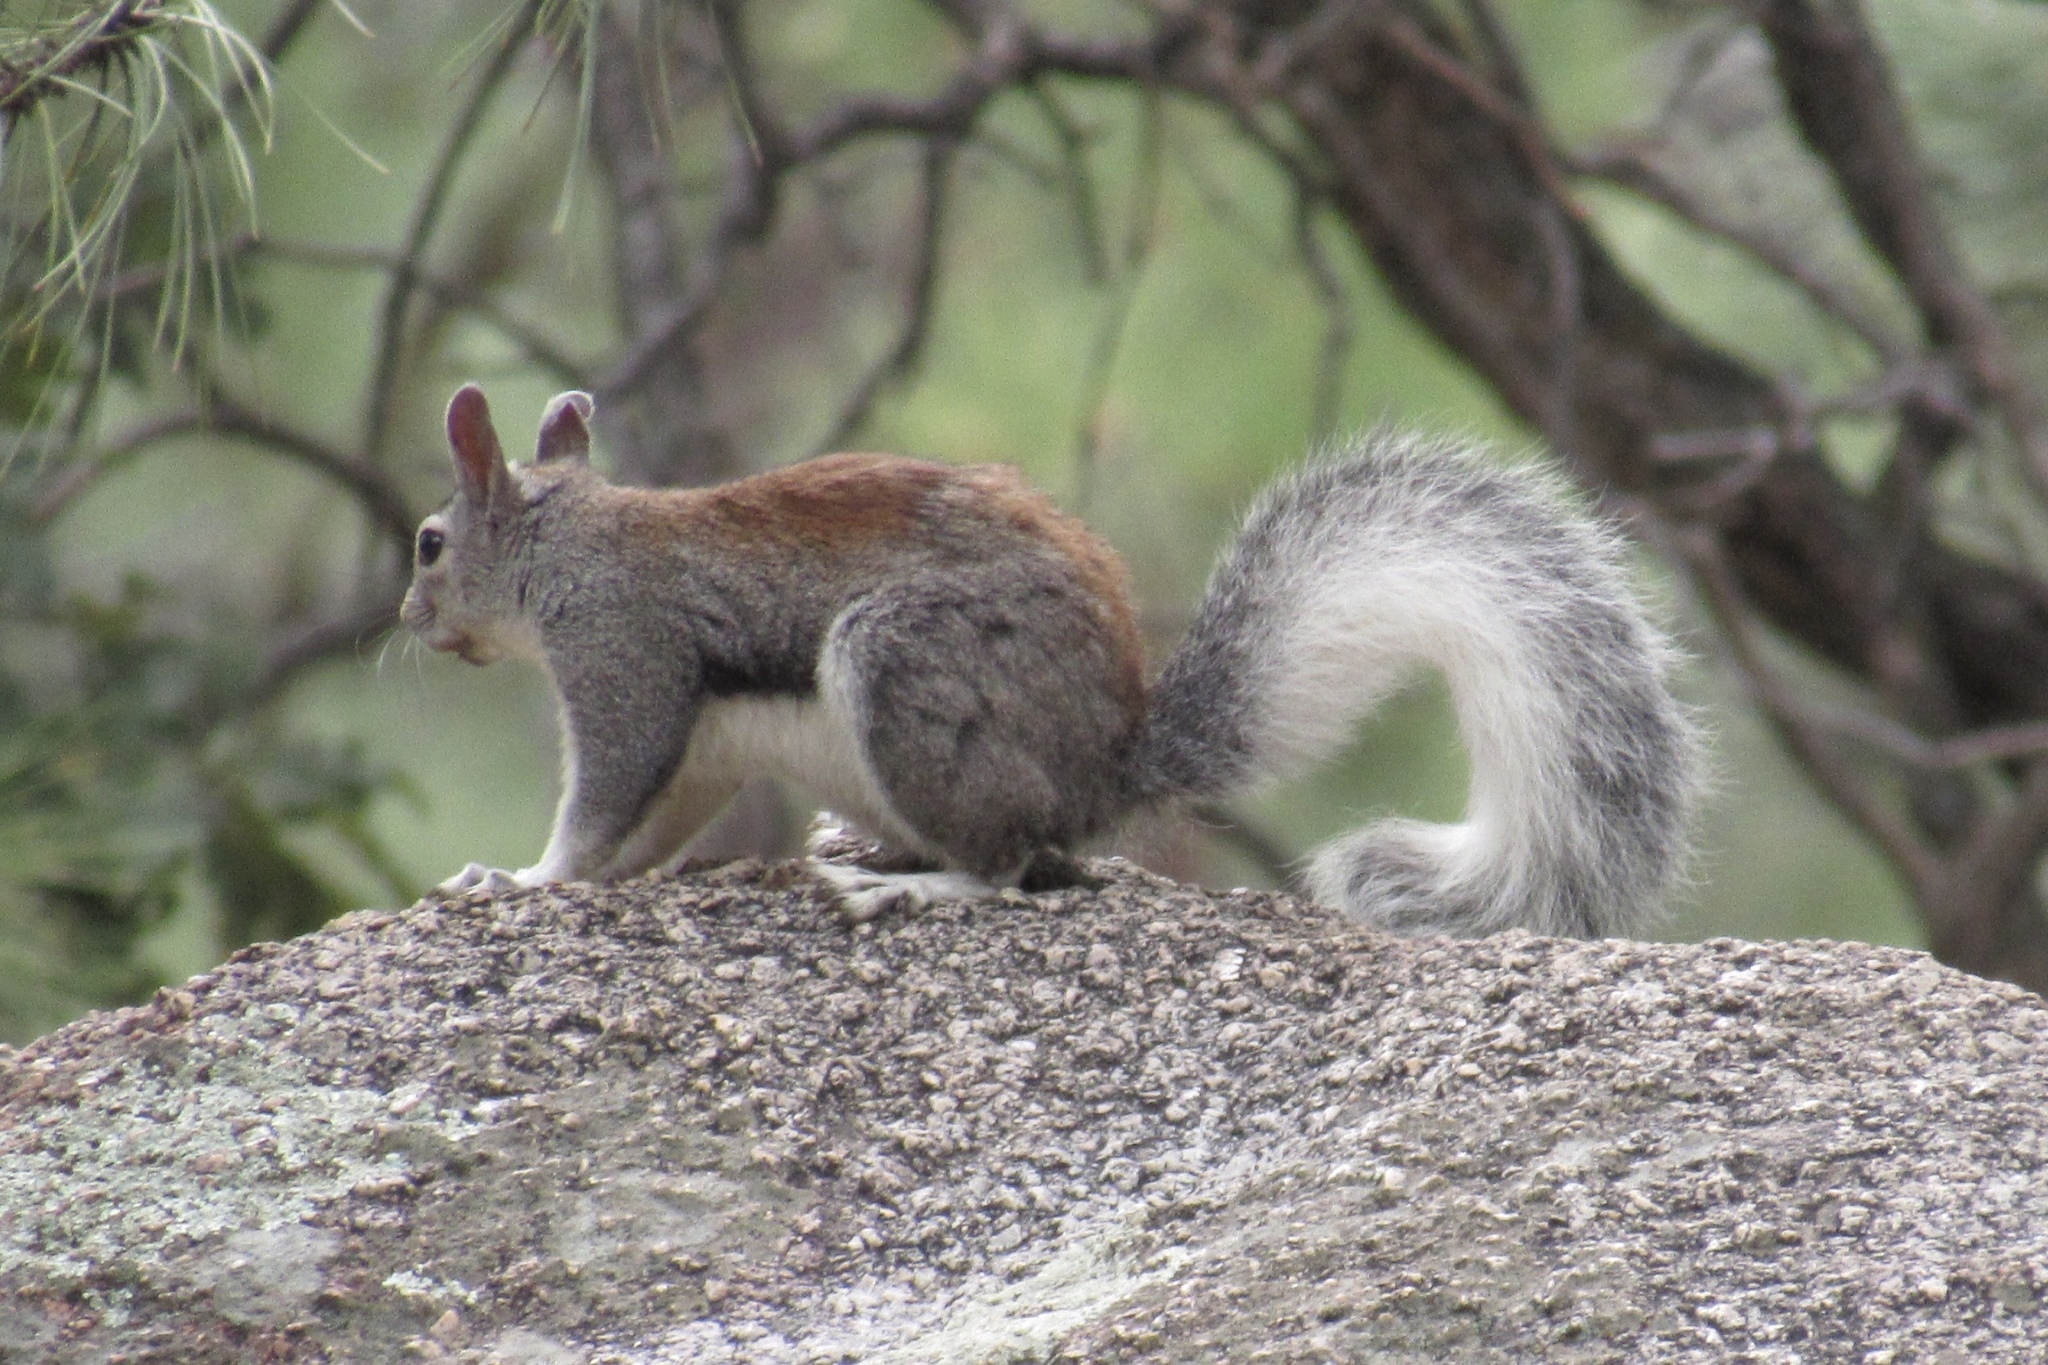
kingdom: Animalia
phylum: Chordata
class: Mammalia
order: Rodentia
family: Sciuridae
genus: Sciurus
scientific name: Sciurus aberti
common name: Abert's squirrel
